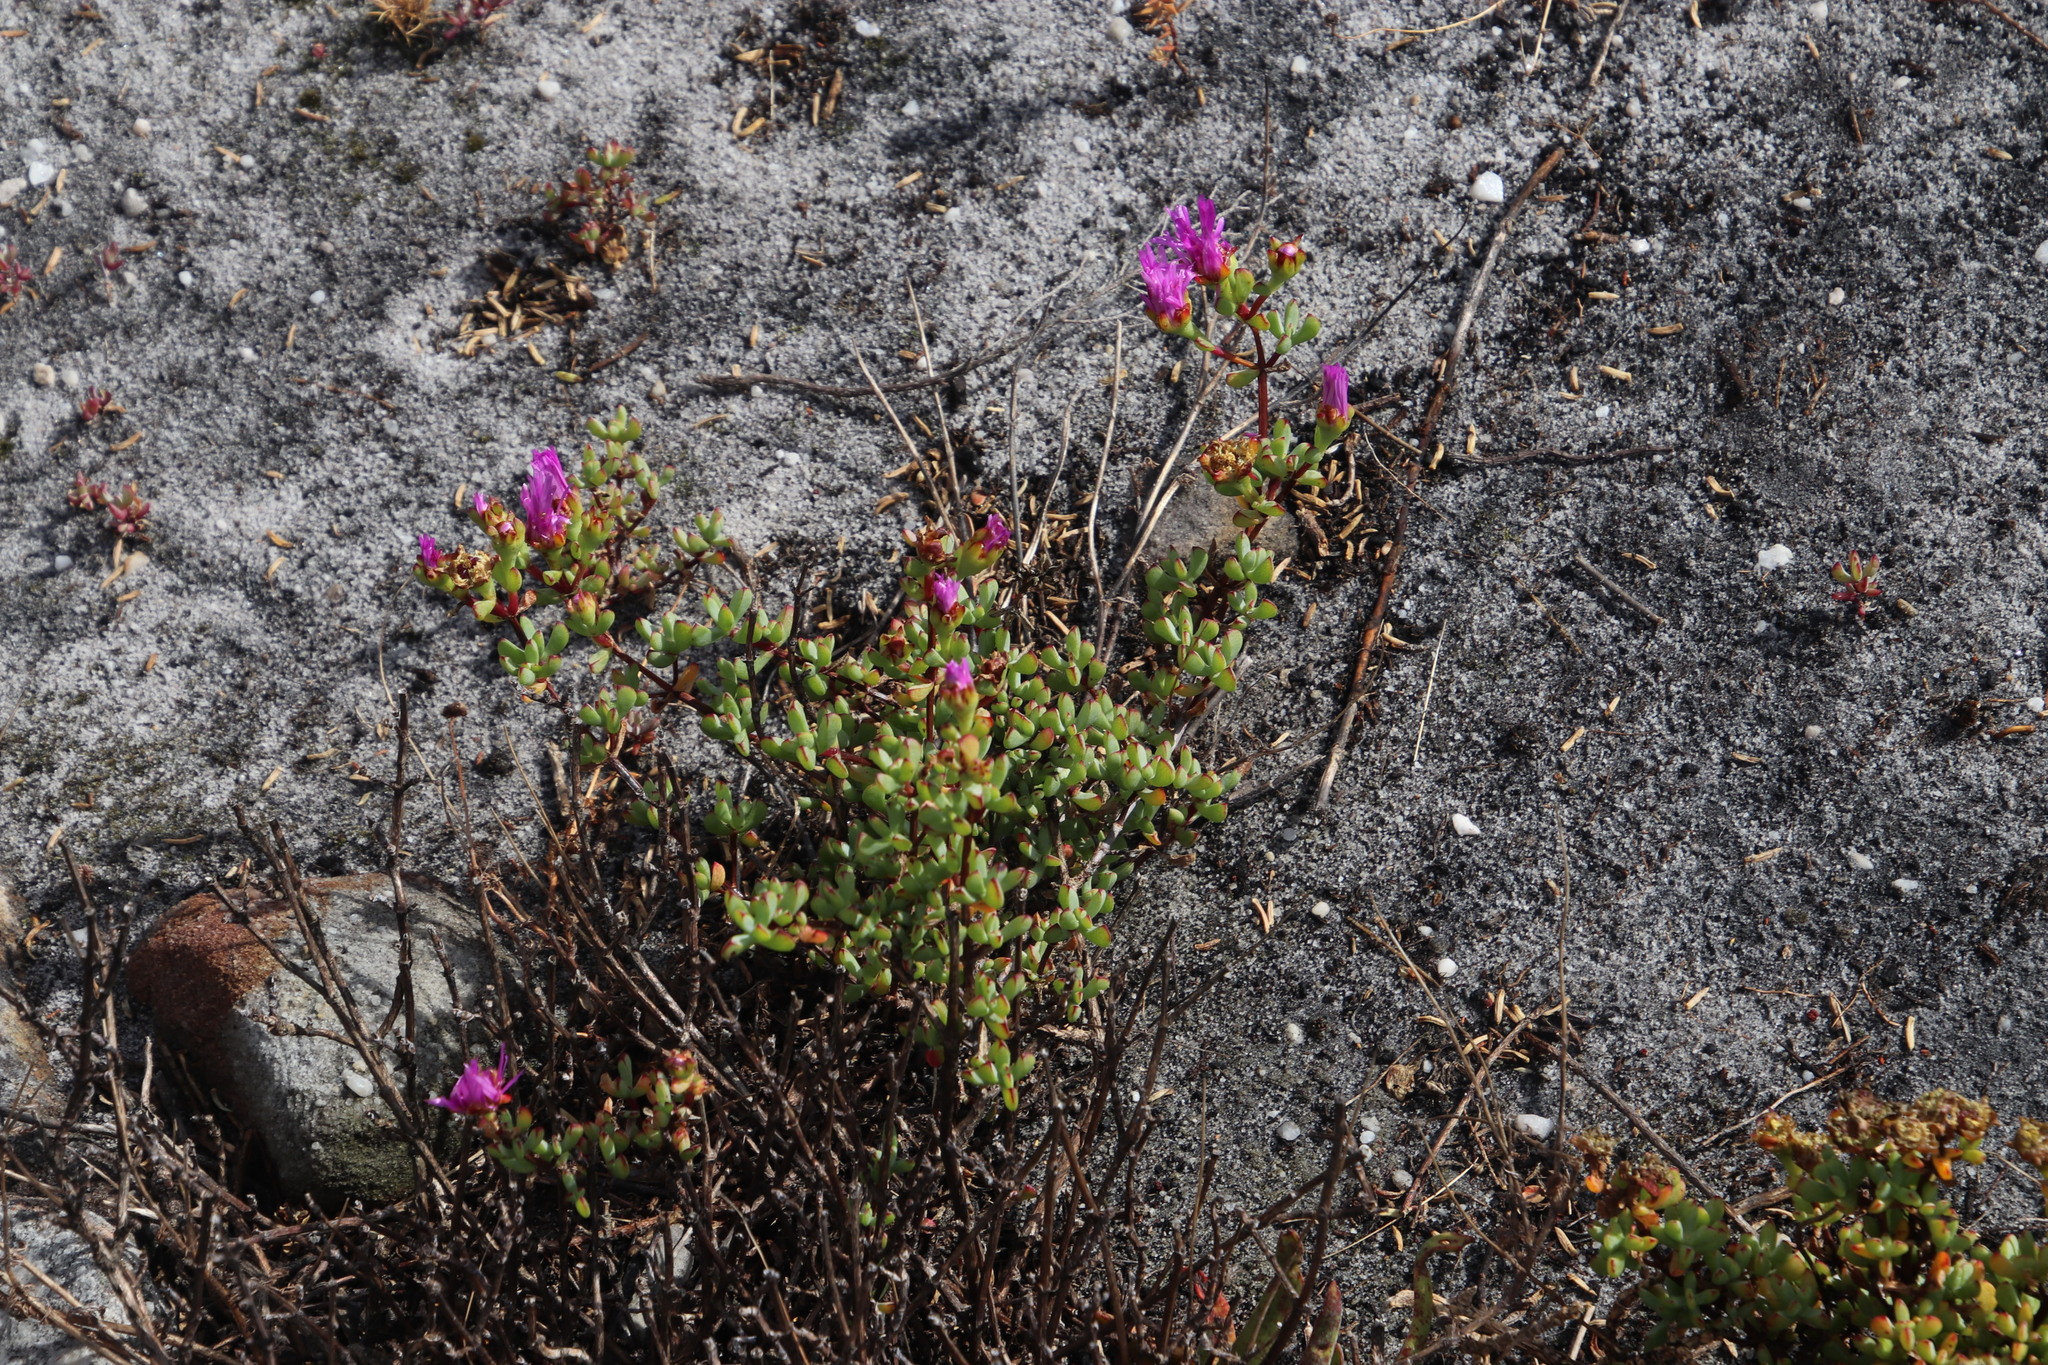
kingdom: Plantae
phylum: Tracheophyta
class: Magnoliopsida
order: Caryophyllales
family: Aizoaceae
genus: Oscularia
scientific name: Oscularia falciformis
